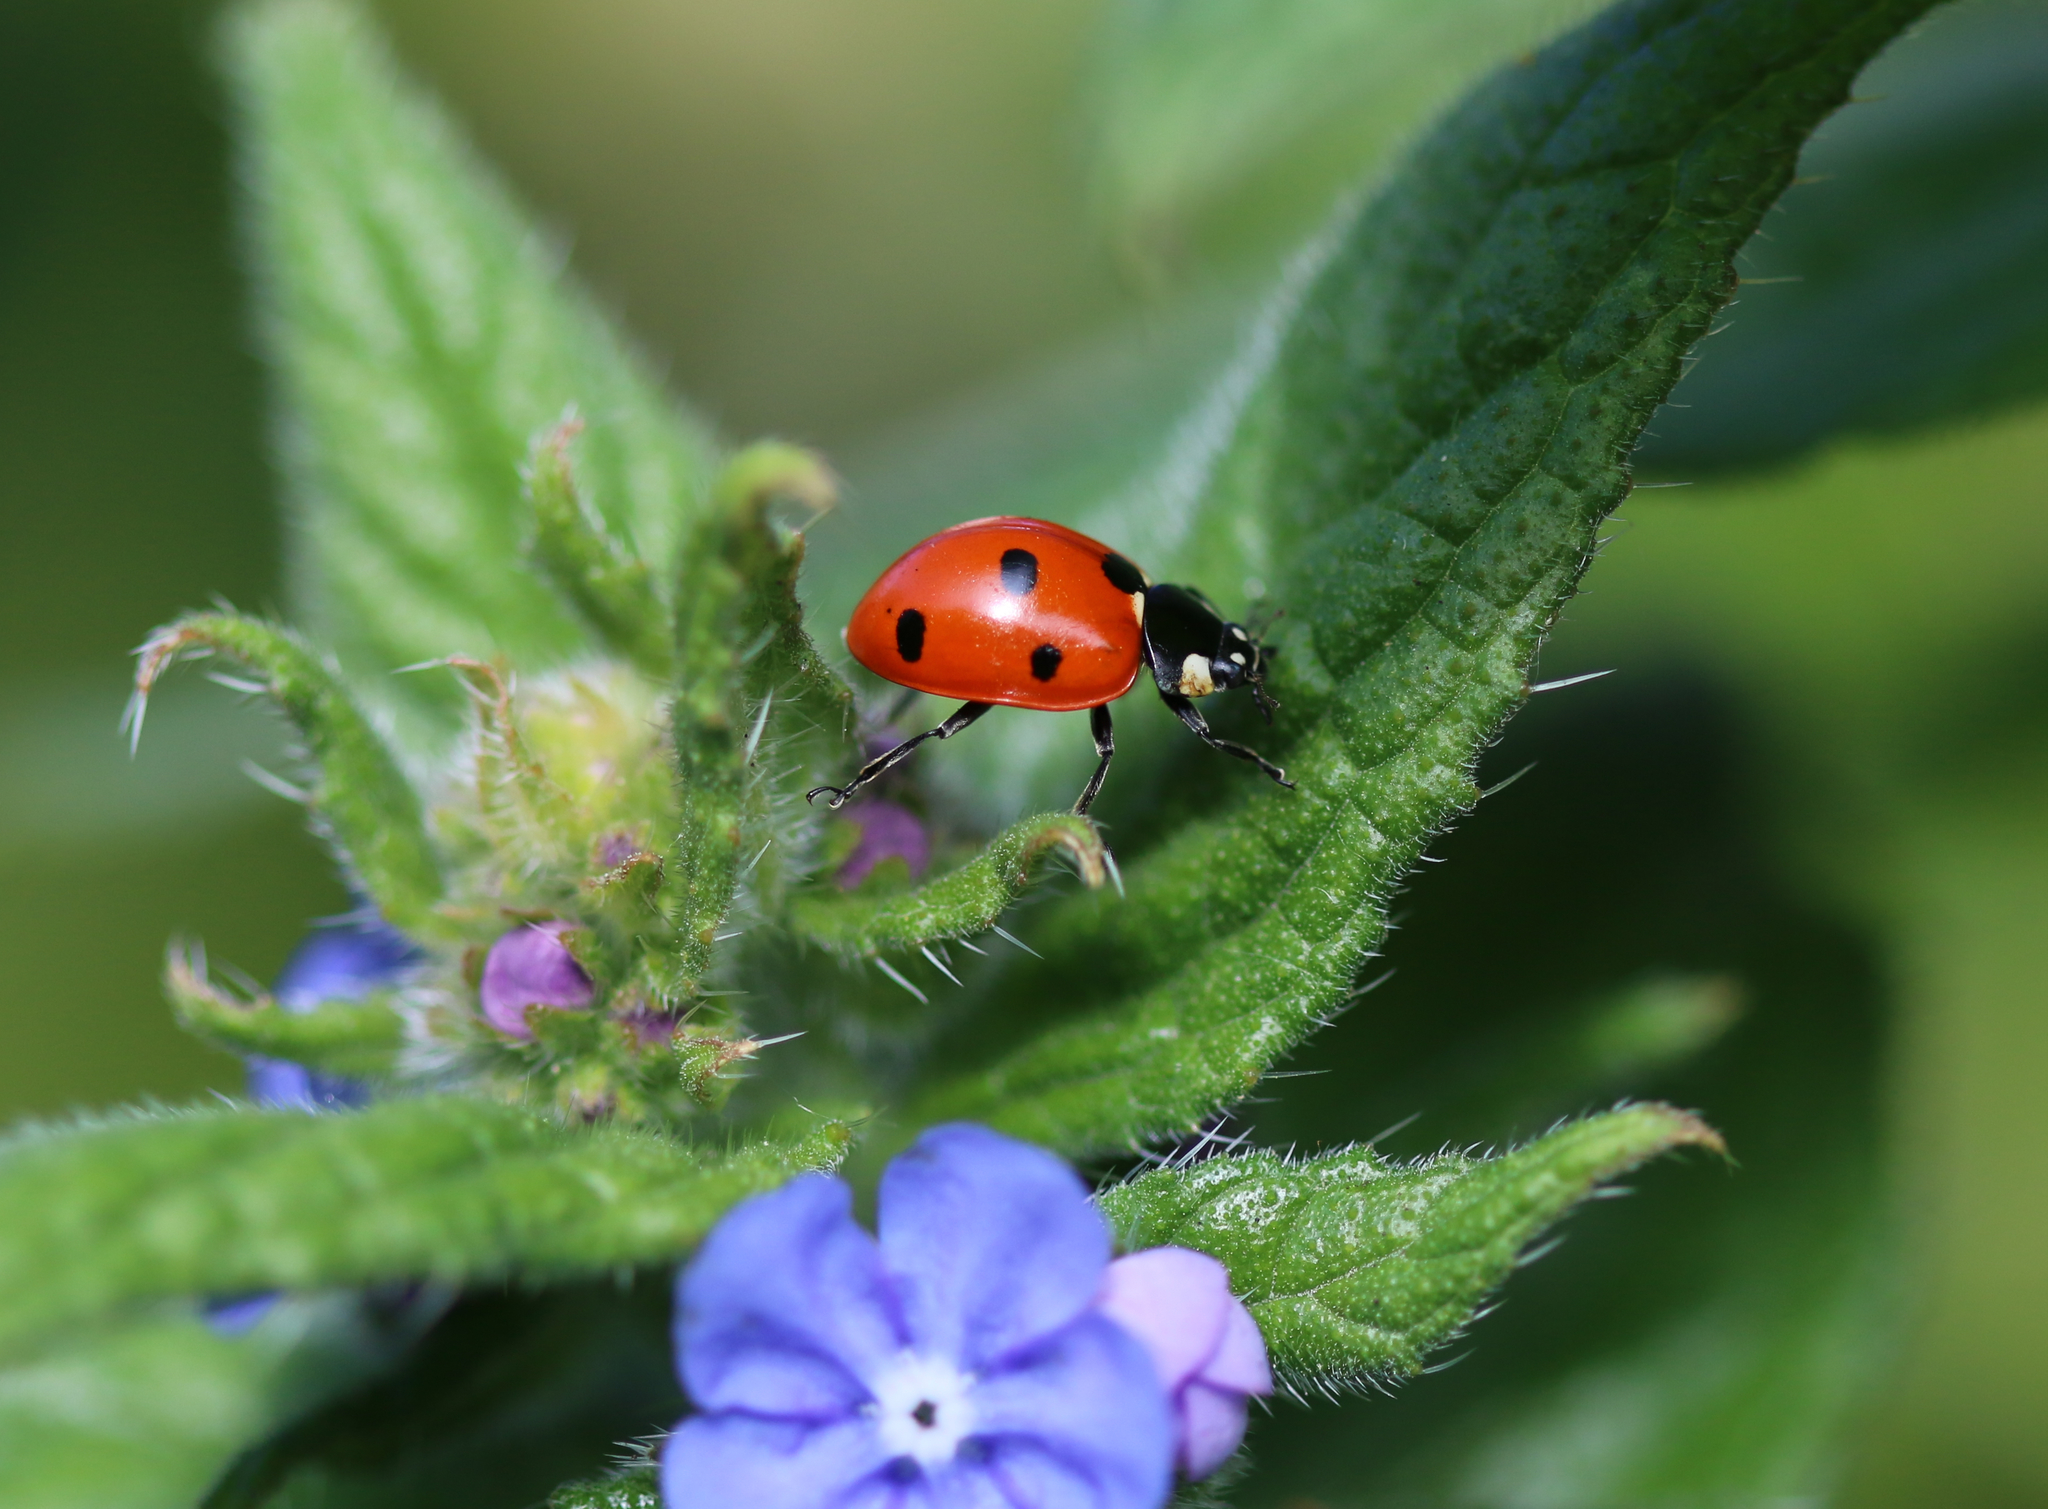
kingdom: Animalia
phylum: Arthropoda
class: Insecta
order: Coleoptera
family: Coccinellidae
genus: Coccinella
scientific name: Coccinella septempunctata
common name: Sevenspotted lady beetle
